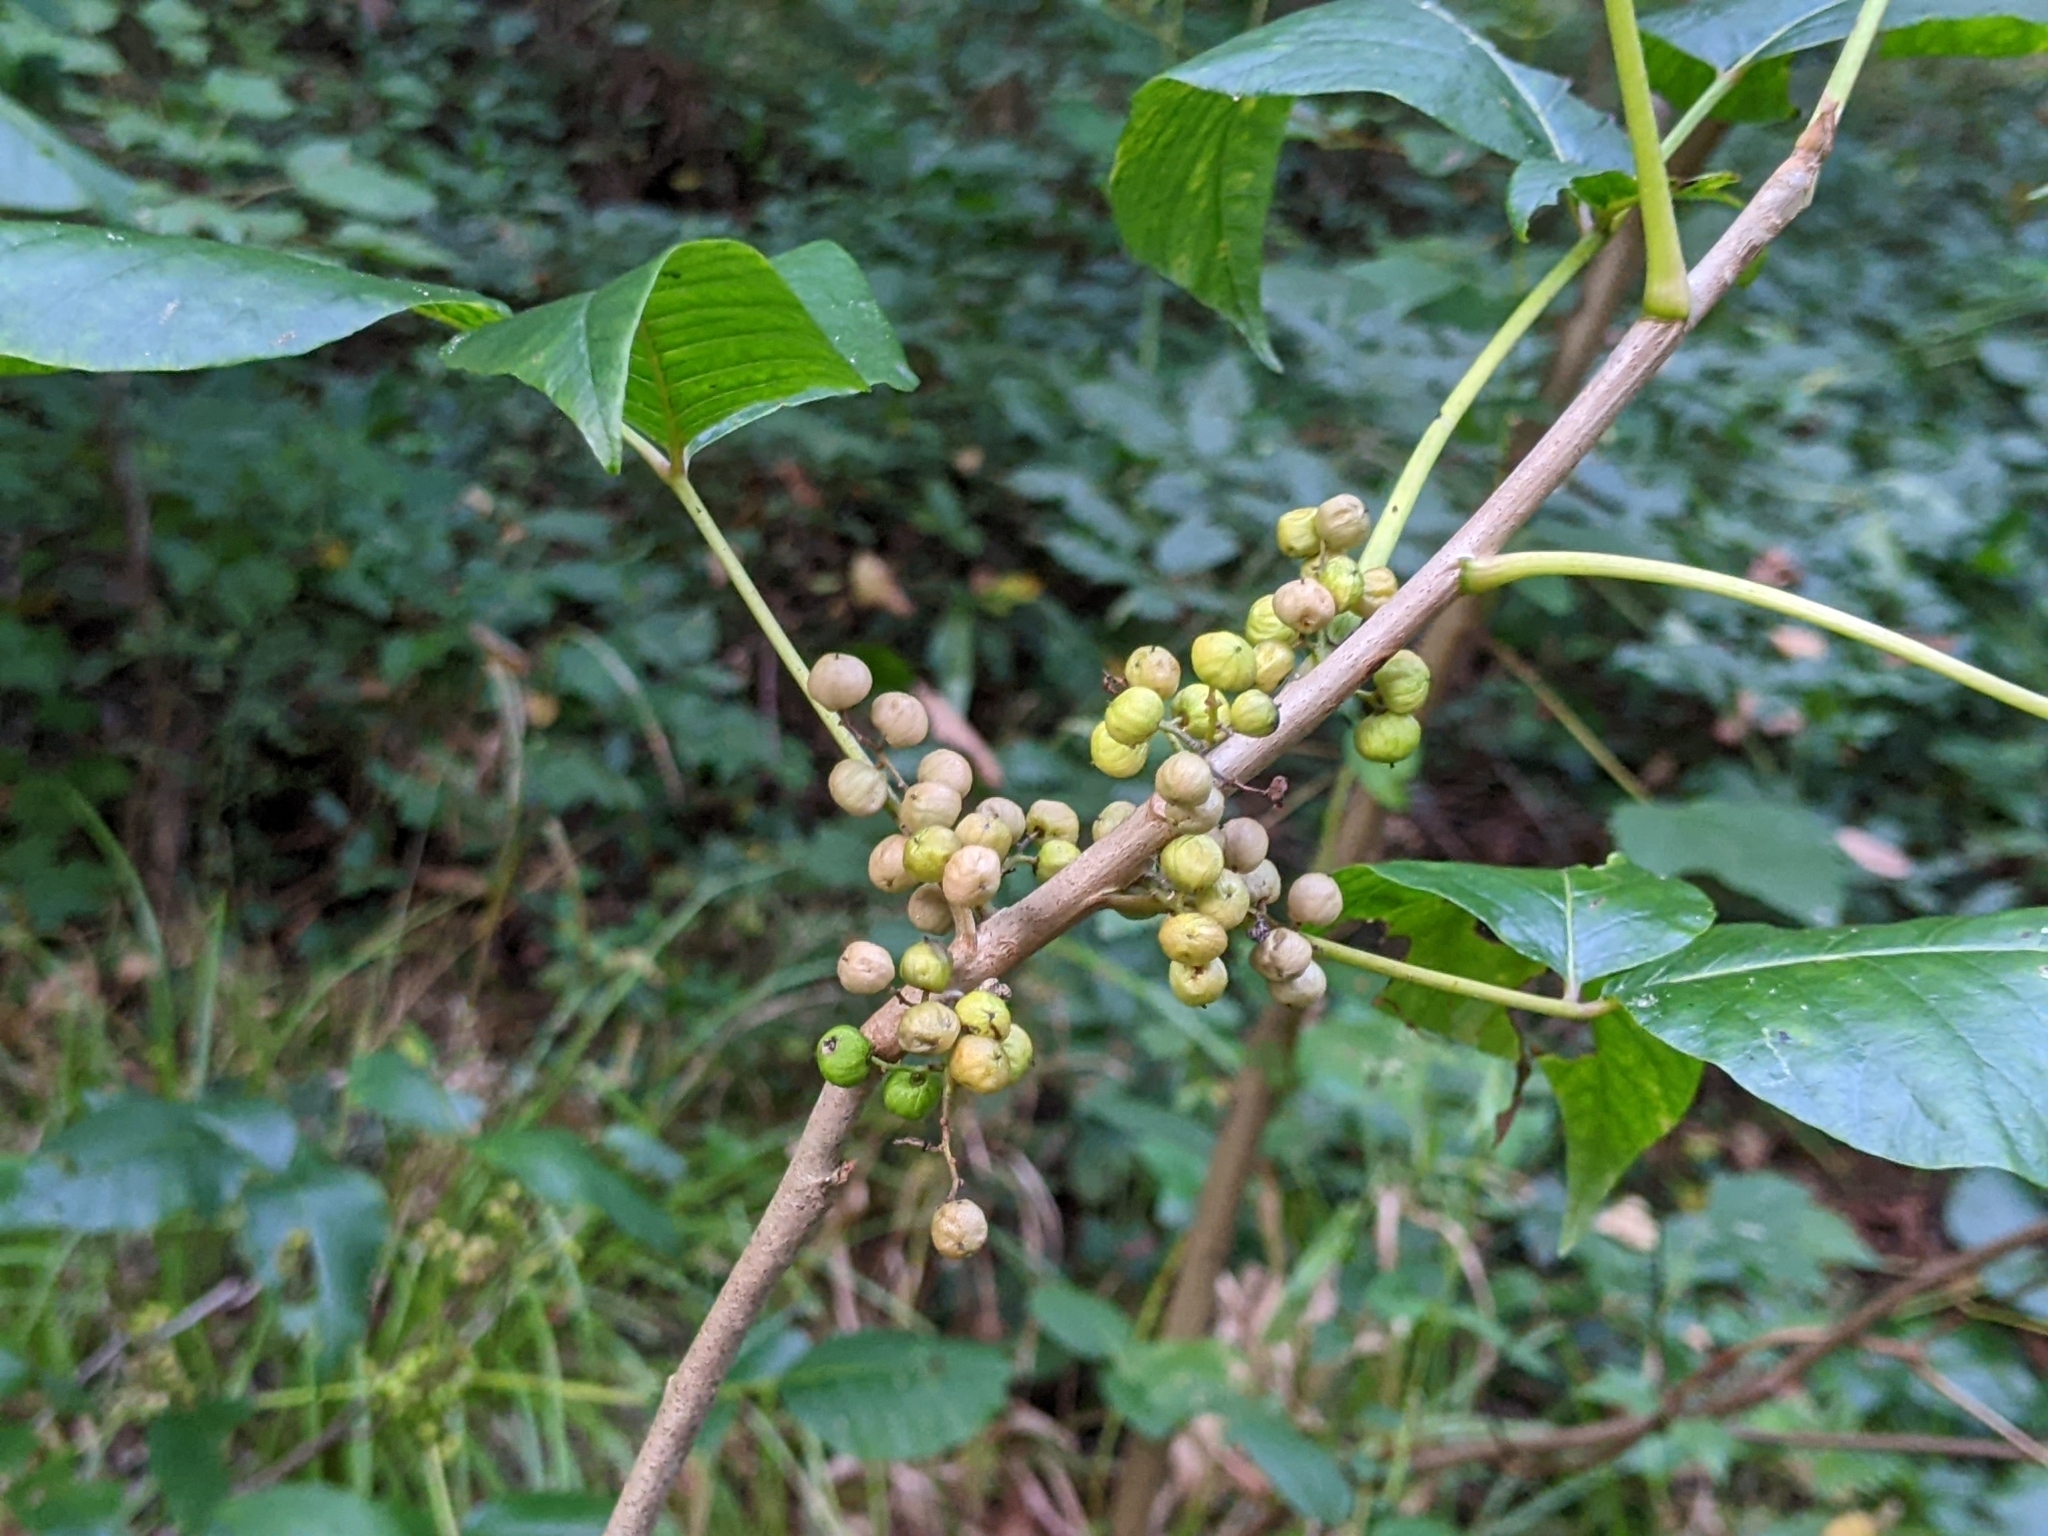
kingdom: Plantae
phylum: Tracheophyta
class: Magnoliopsida
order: Sapindales
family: Anacardiaceae
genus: Toxicodendron
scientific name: Toxicodendron radicans
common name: Poison ivy
